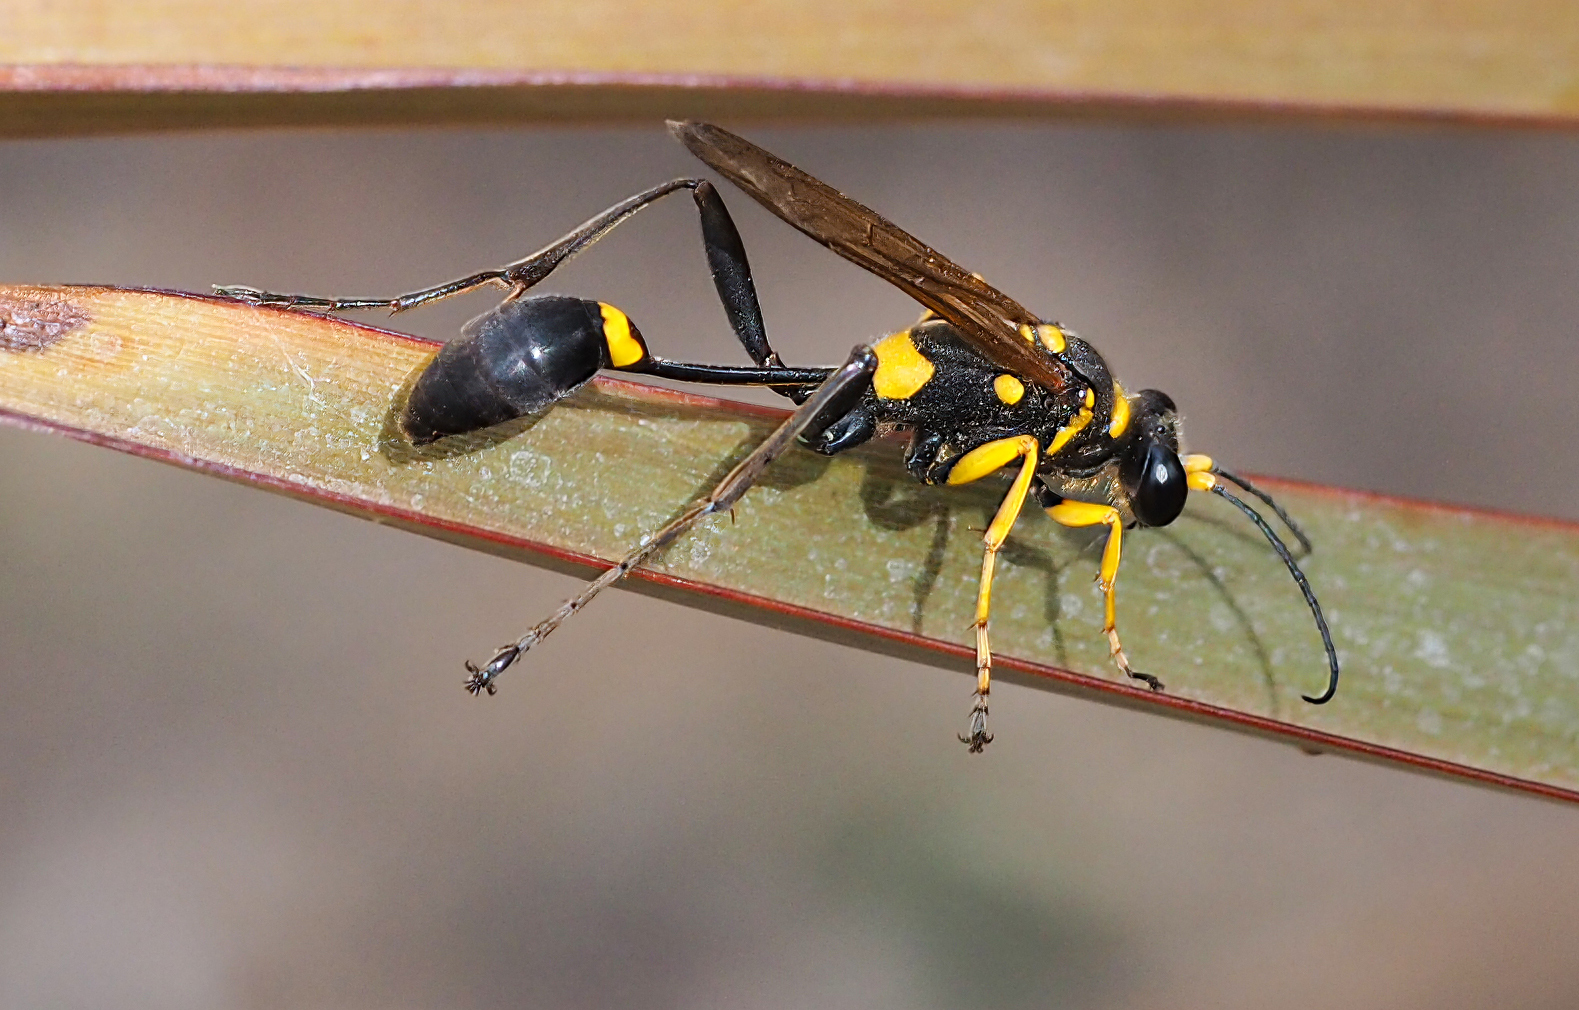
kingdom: Animalia
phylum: Arthropoda
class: Insecta
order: Hymenoptera
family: Sphecidae
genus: Sceliphron
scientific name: Sceliphron asiaticum
